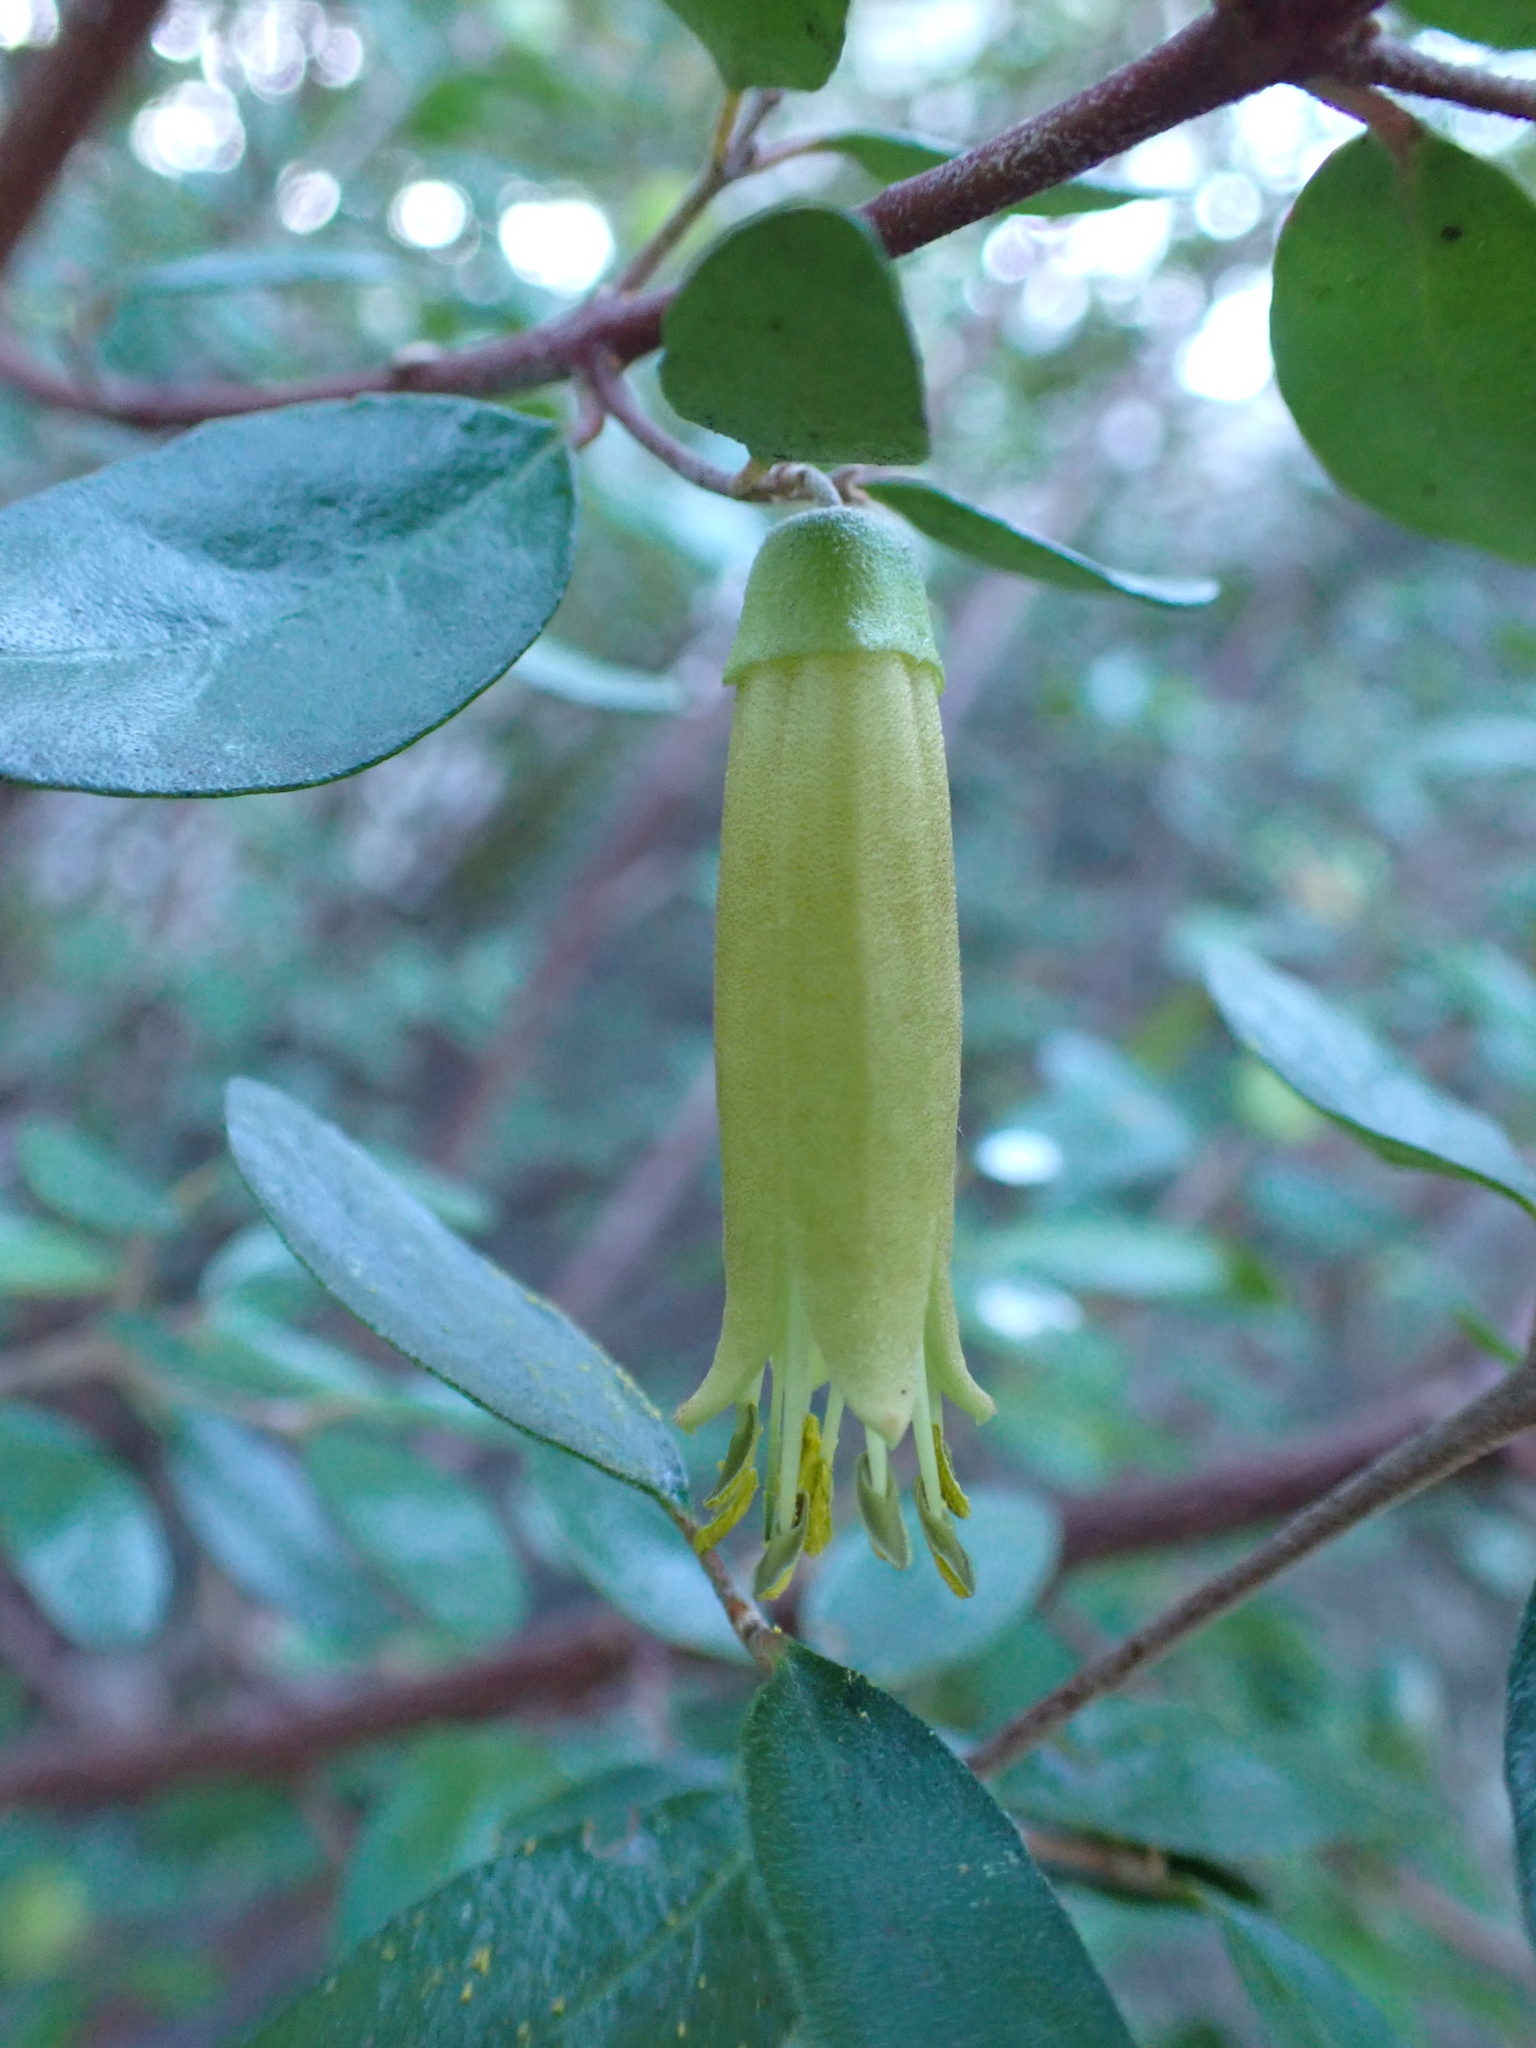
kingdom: Plantae
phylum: Tracheophyta
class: Magnoliopsida
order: Sapindales
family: Rutaceae
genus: Correa
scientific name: Correa glabra
